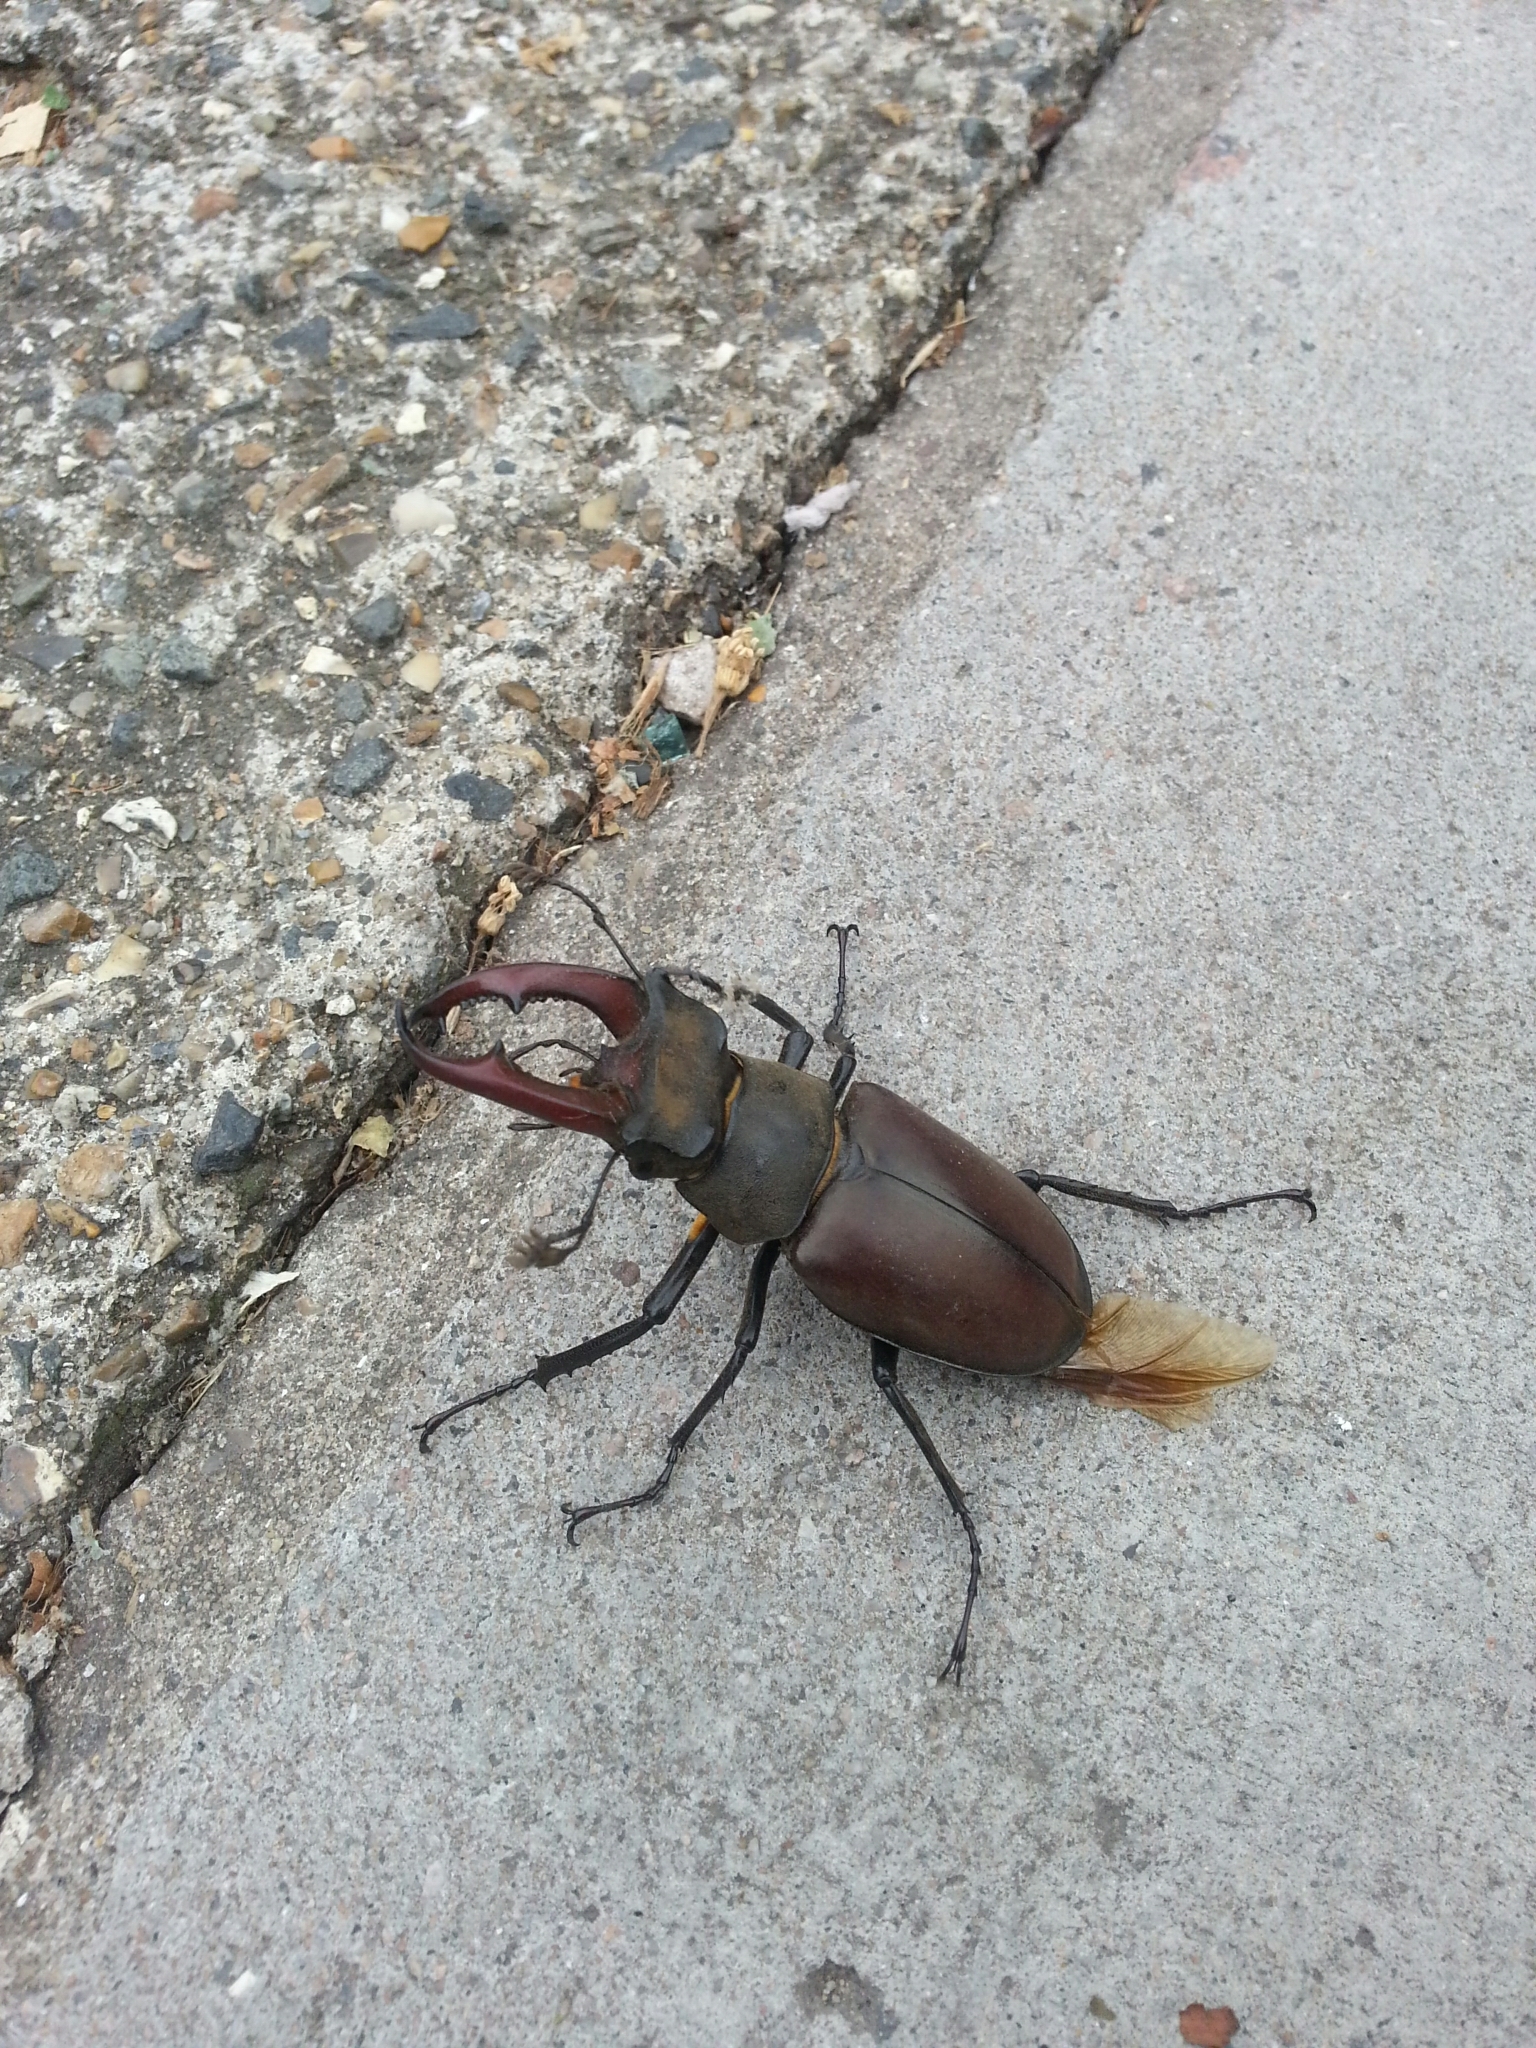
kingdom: Animalia
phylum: Arthropoda
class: Insecta
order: Coleoptera
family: Lucanidae
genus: Lucanus
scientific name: Lucanus cervus
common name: Stag beetle
